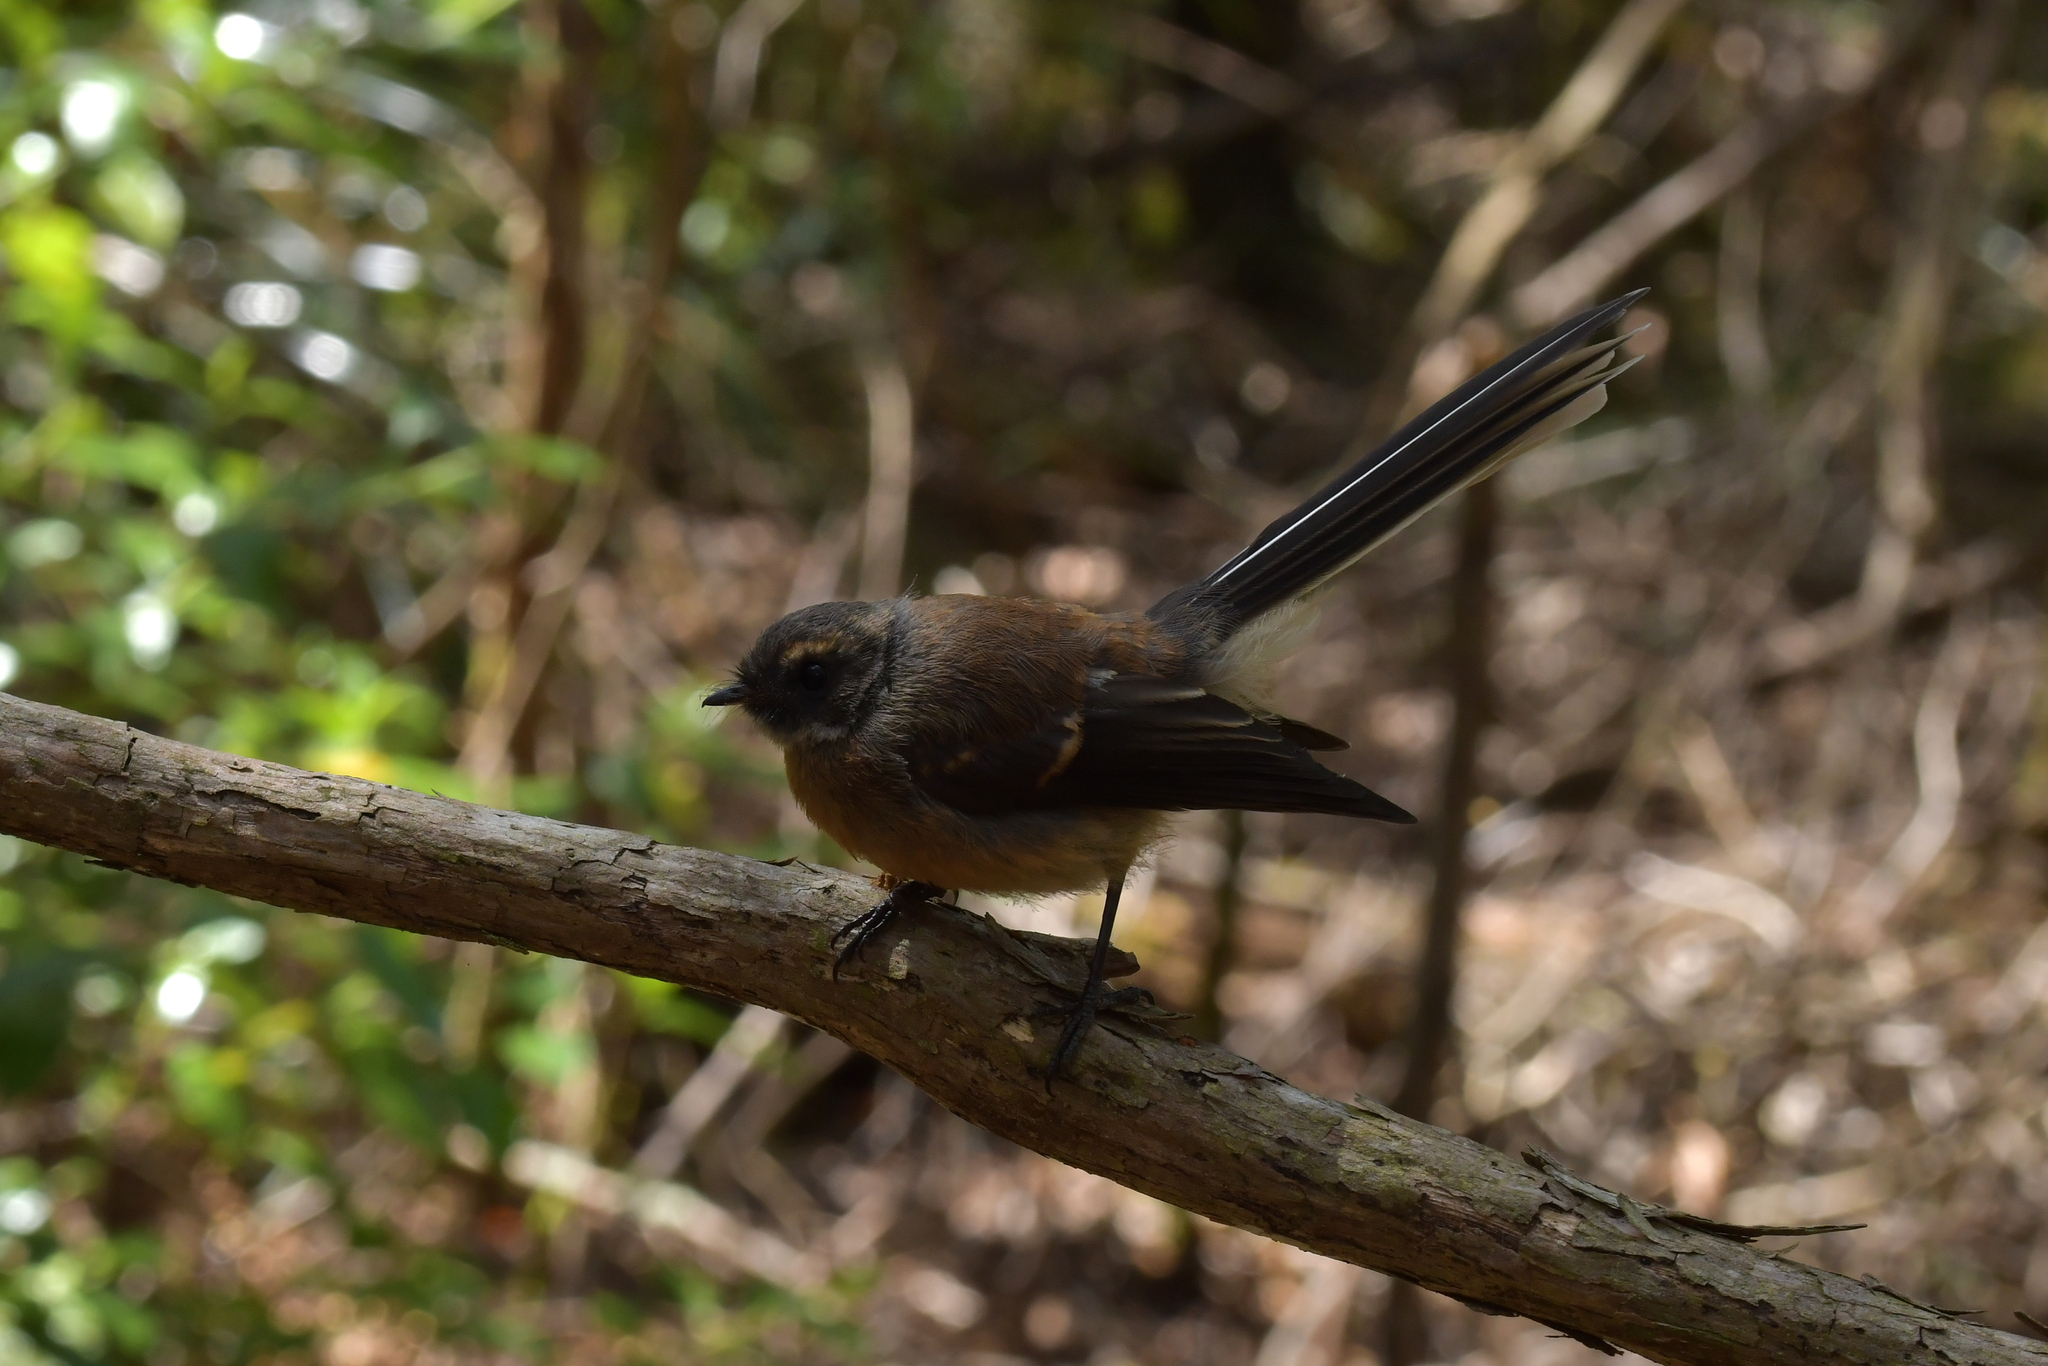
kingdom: Animalia
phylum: Chordata
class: Aves
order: Passeriformes
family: Rhipiduridae
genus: Rhipidura
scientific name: Rhipidura fuliginosa
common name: New zealand fantail
